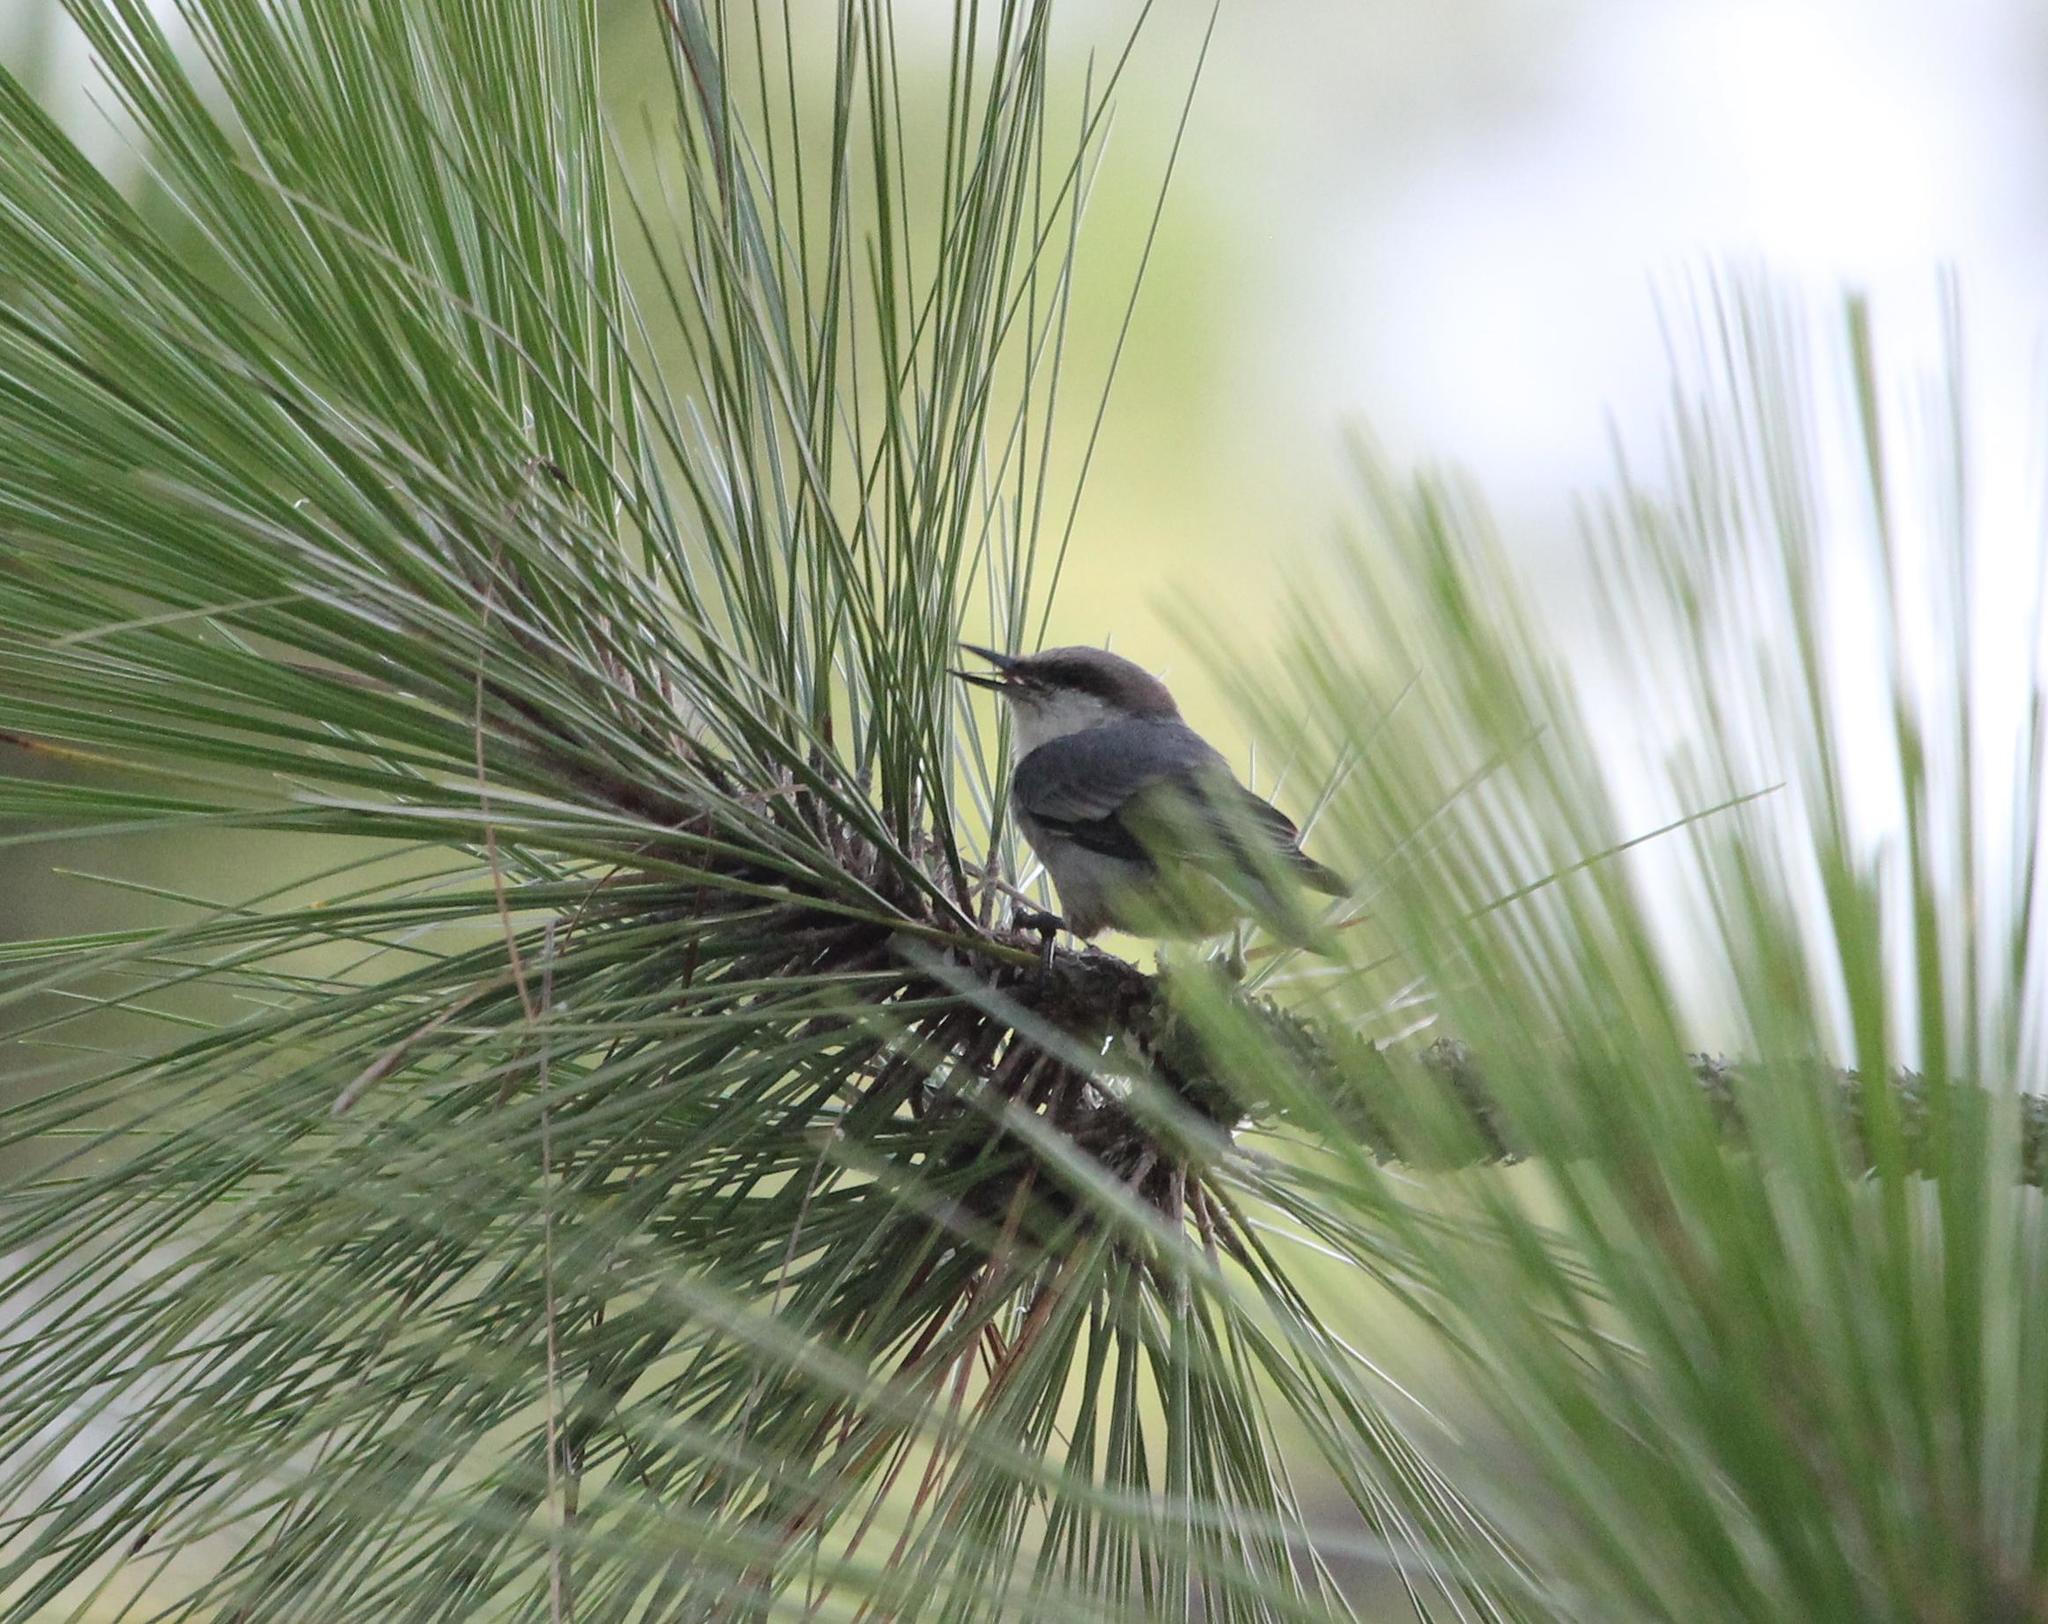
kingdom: Animalia
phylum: Chordata
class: Aves
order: Passeriformes
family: Sittidae
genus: Sitta
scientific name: Sitta pusilla
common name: Brown-headed nuthatch
